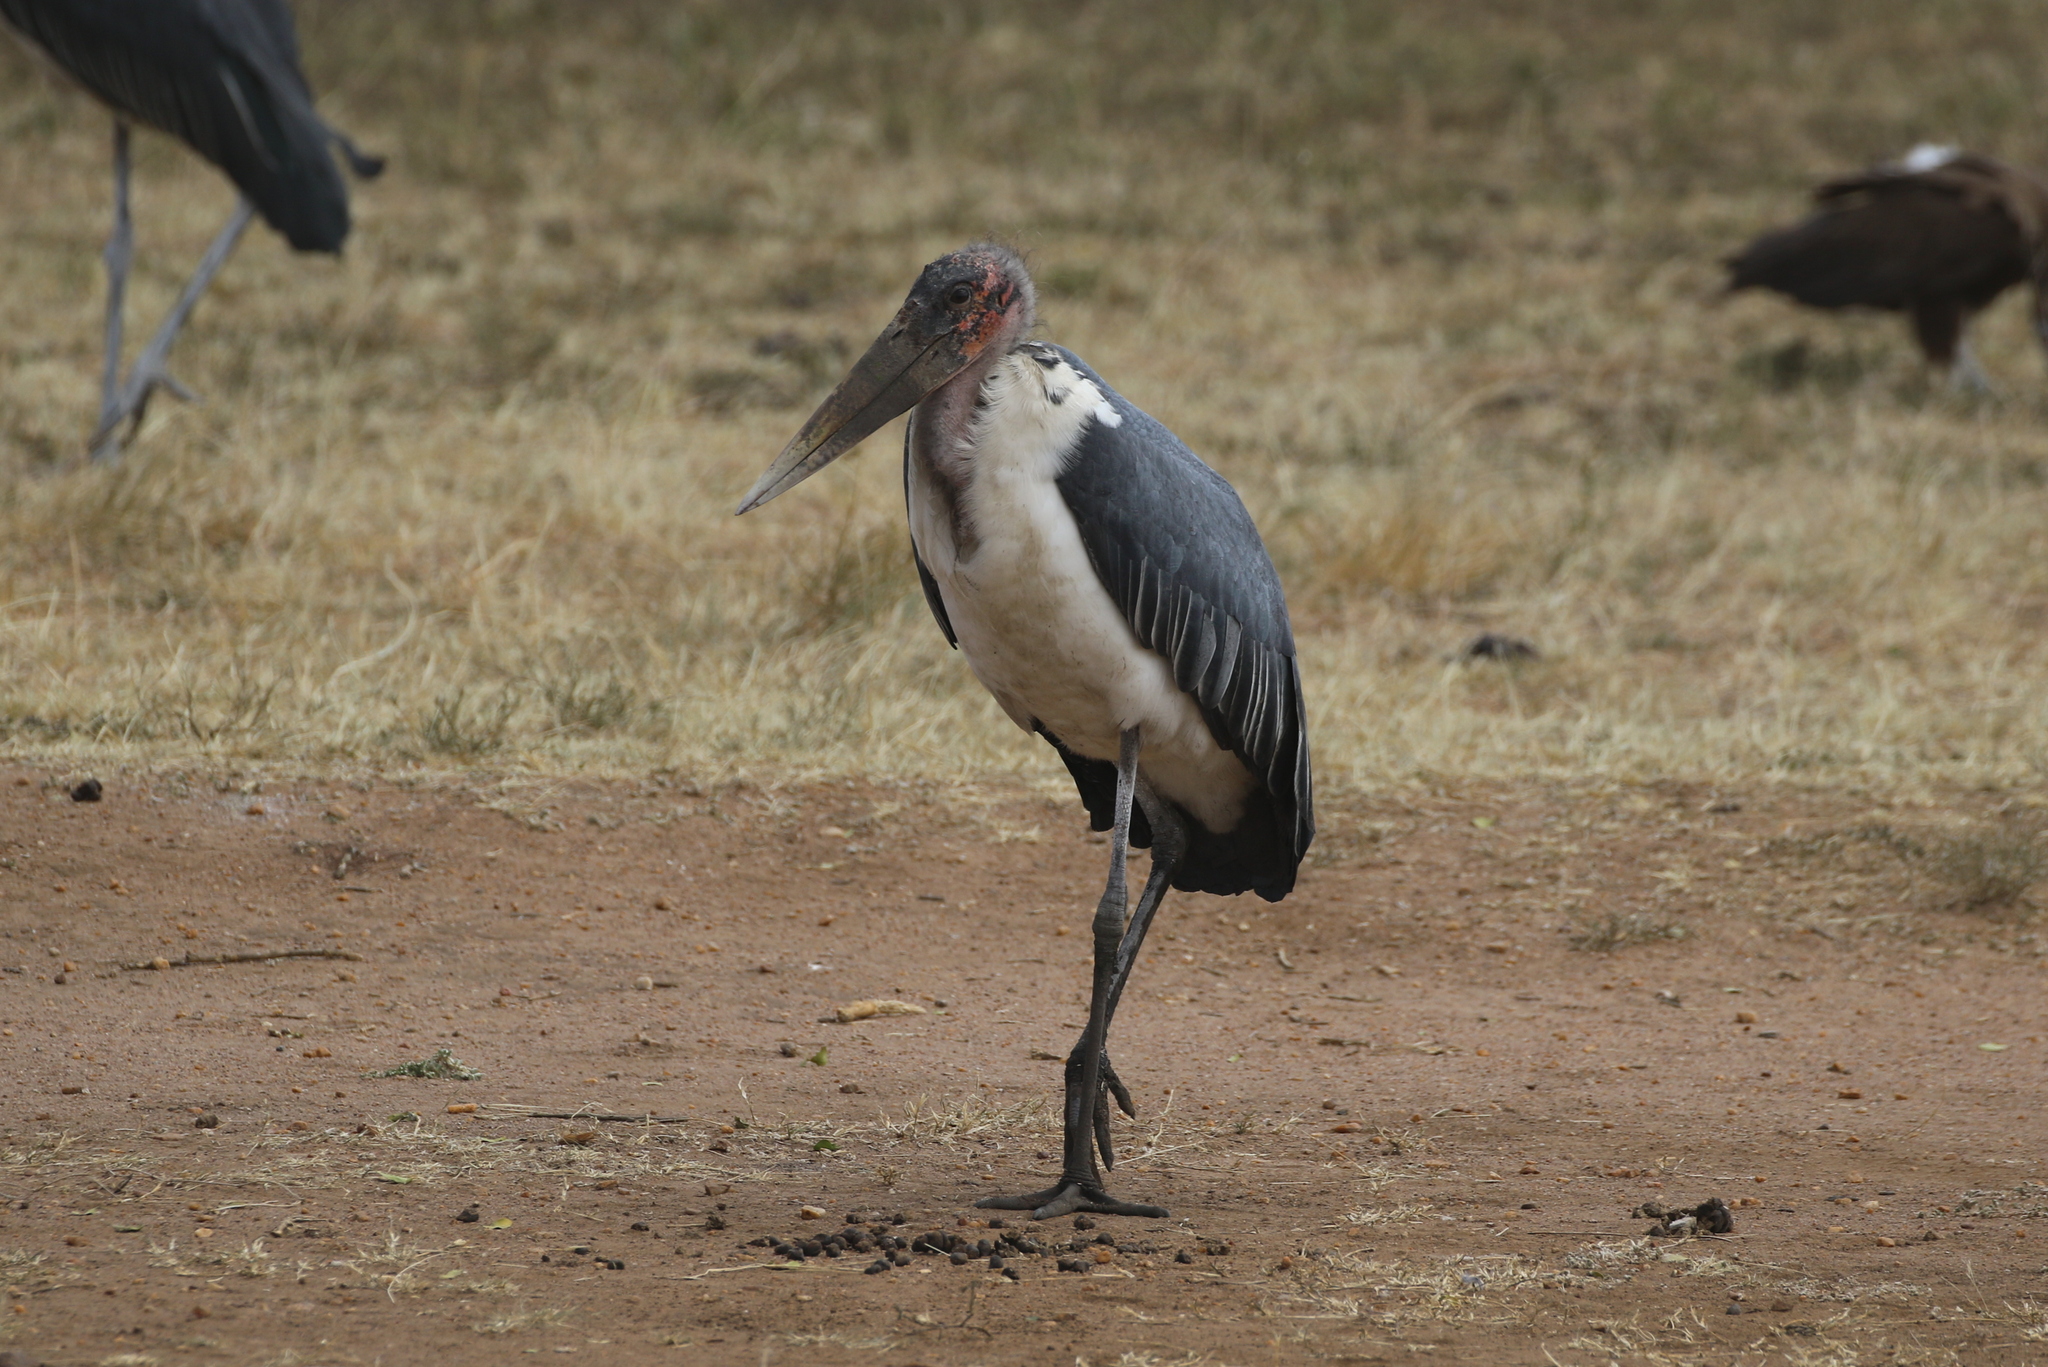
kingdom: Animalia
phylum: Chordata
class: Aves
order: Ciconiiformes
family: Ciconiidae
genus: Leptoptilos
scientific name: Leptoptilos crumenifer
